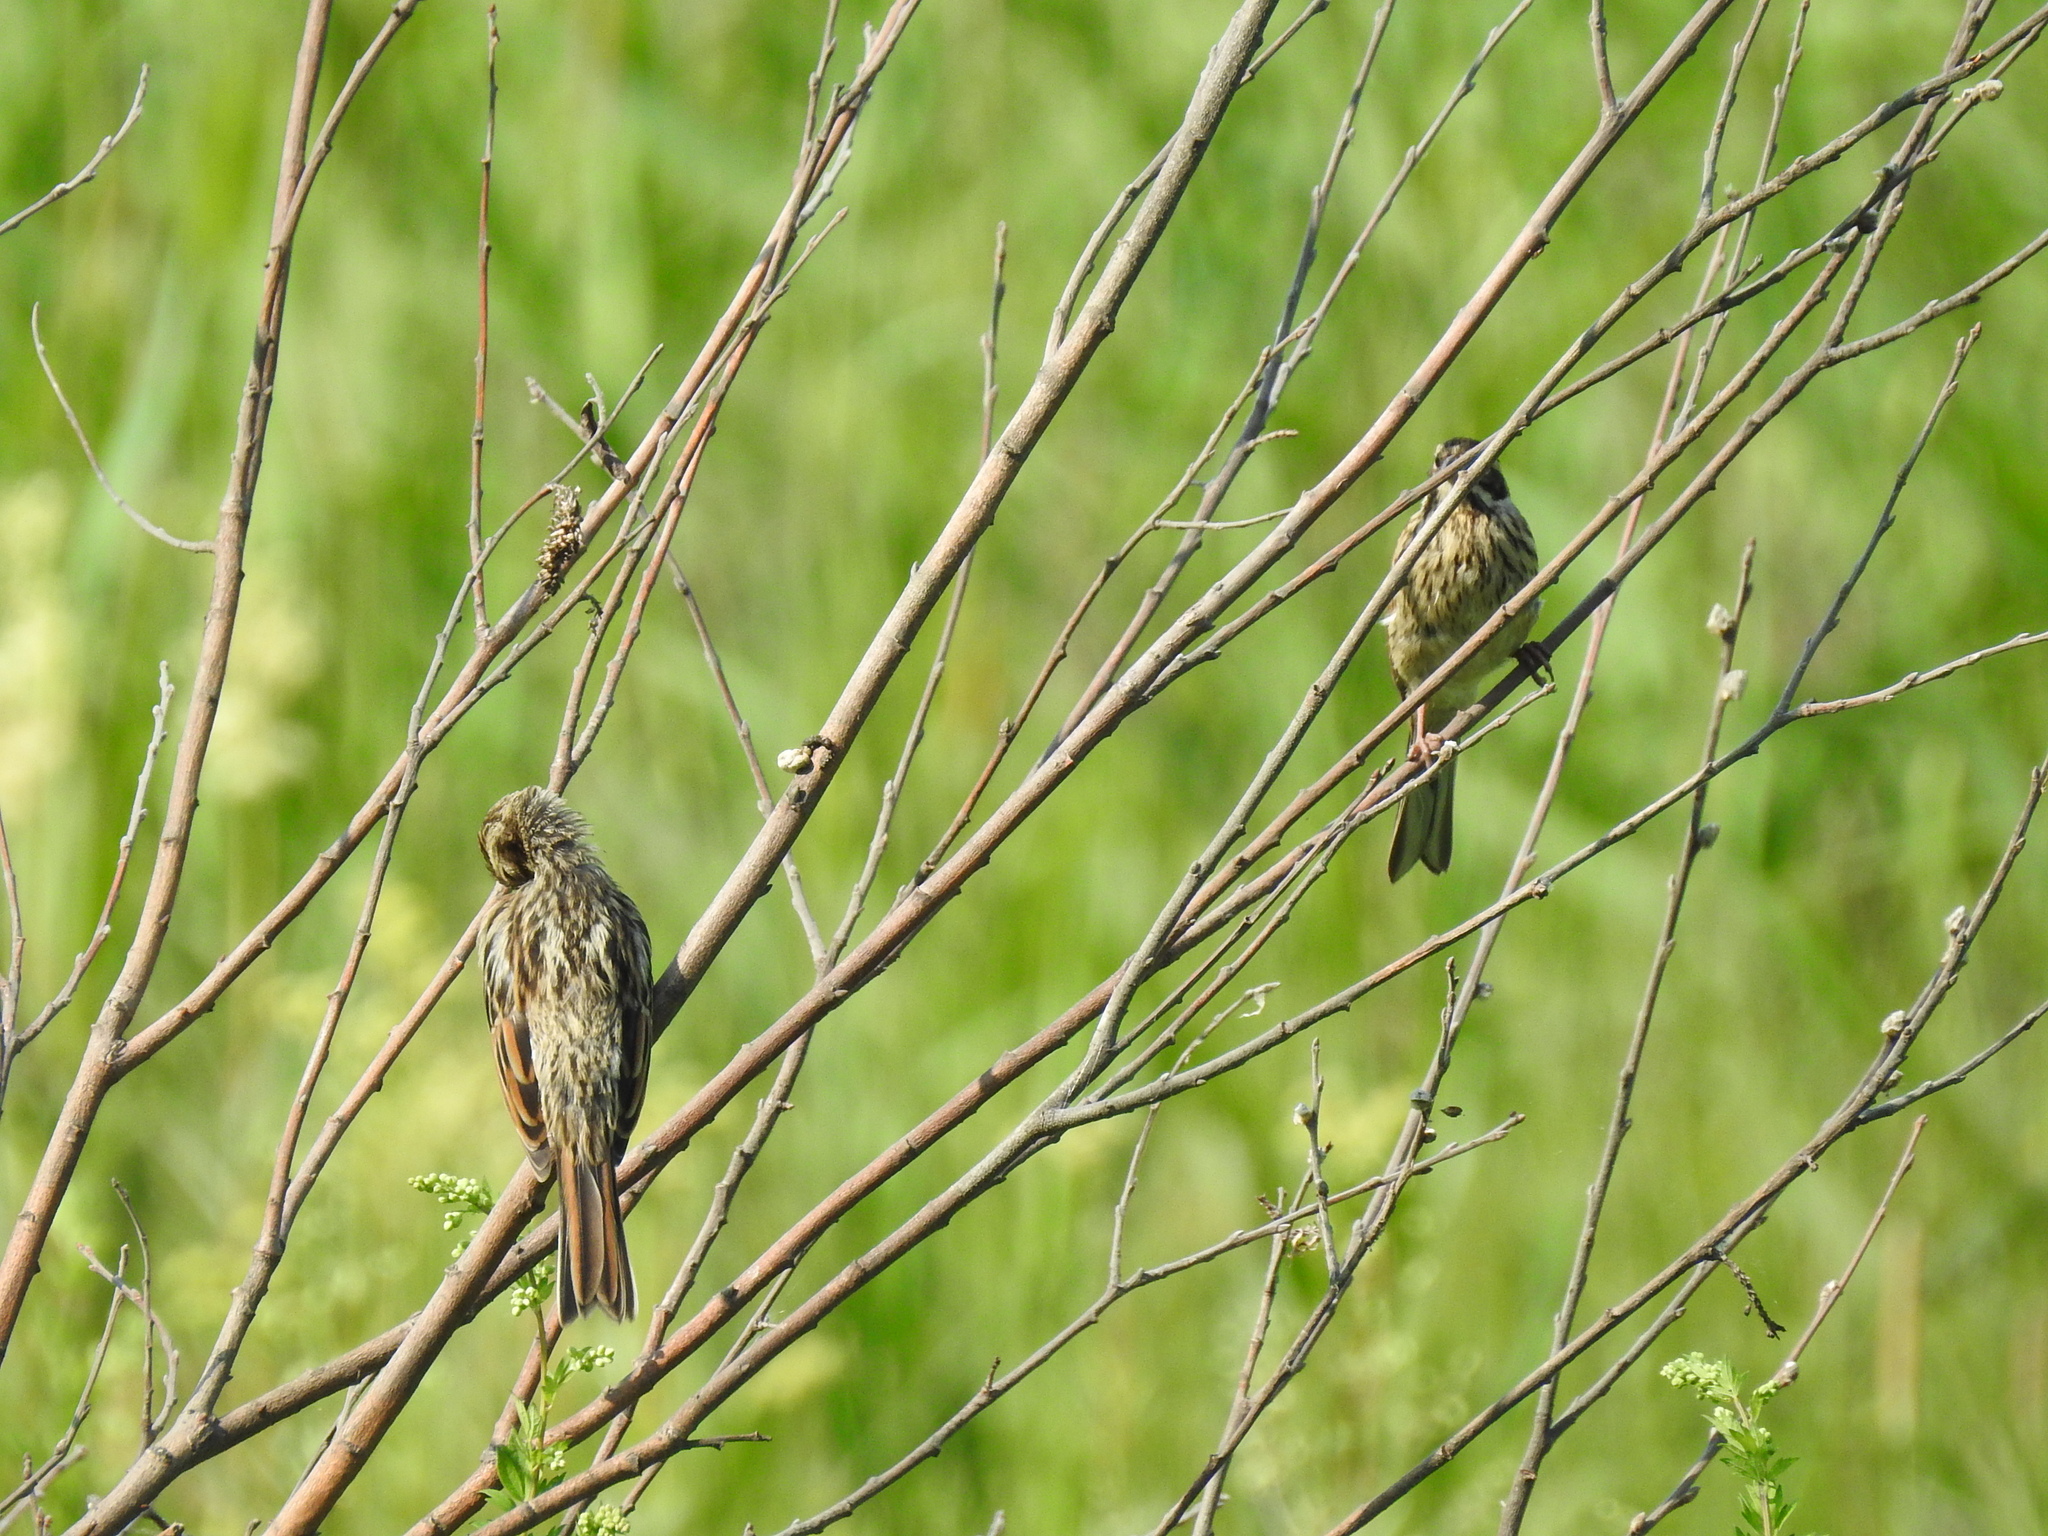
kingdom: Animalia
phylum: Chordata
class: Aves
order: Passeriformes
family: Emberizidae
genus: Emberiza
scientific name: Emberiza schoeniclus
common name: Reed bunting
